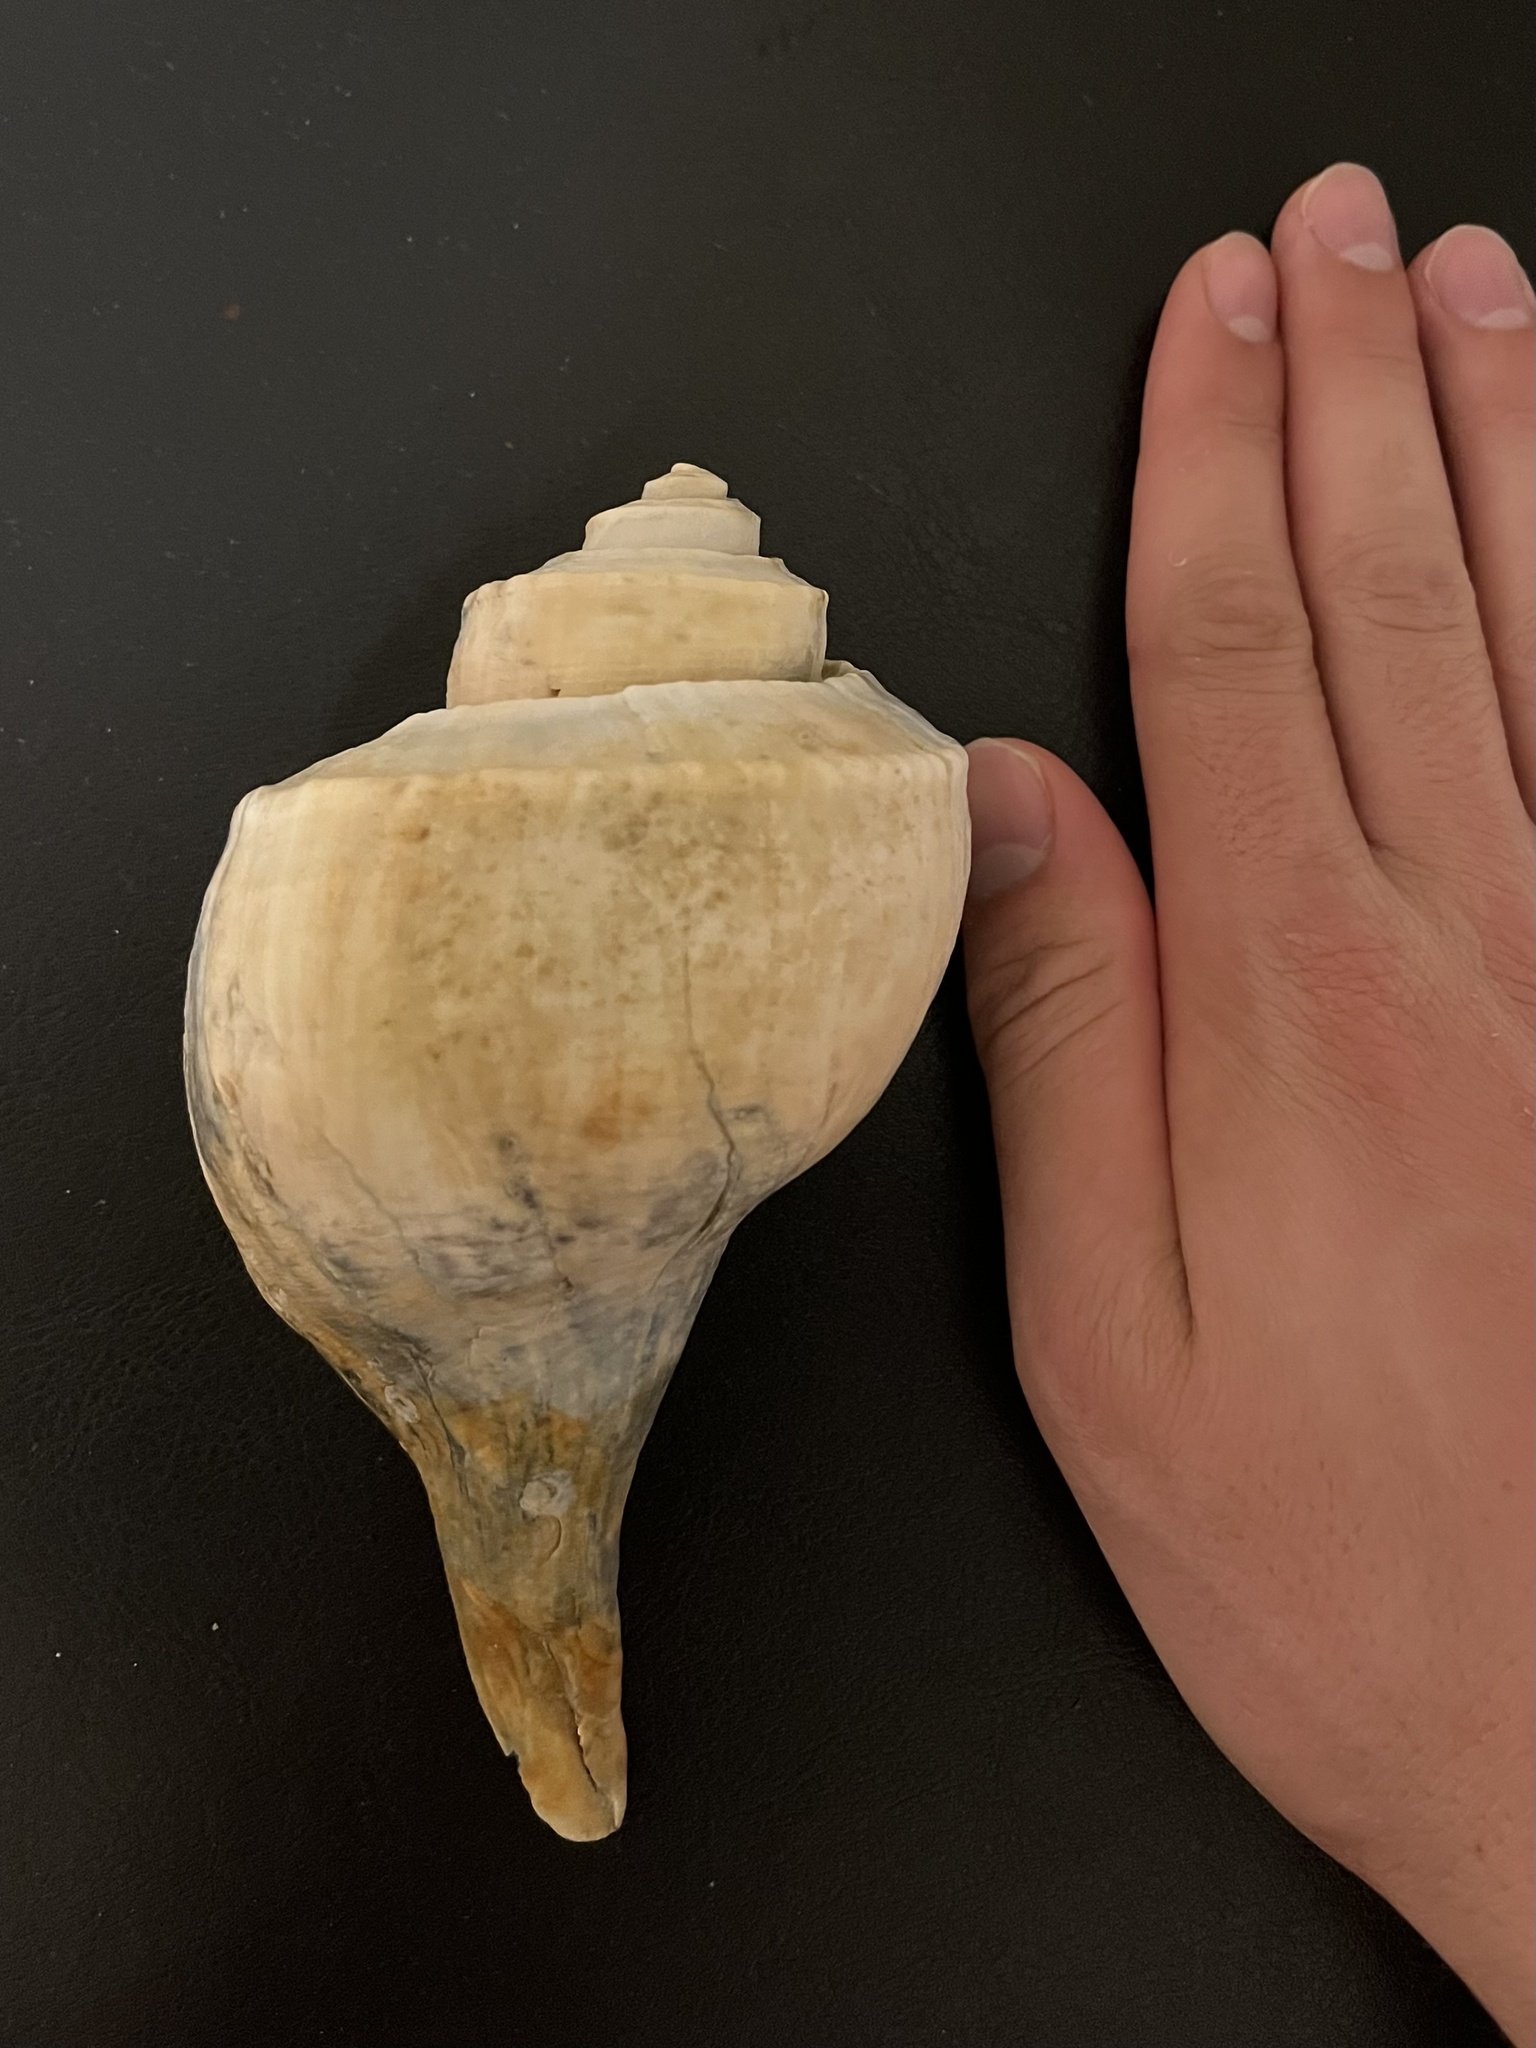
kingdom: Animalia
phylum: Mollusca
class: Gastropoda
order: Neogastropoda
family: Busyconidae
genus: Busycotypus
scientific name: Busycotypus canaliculatus
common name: Channeled whelk
